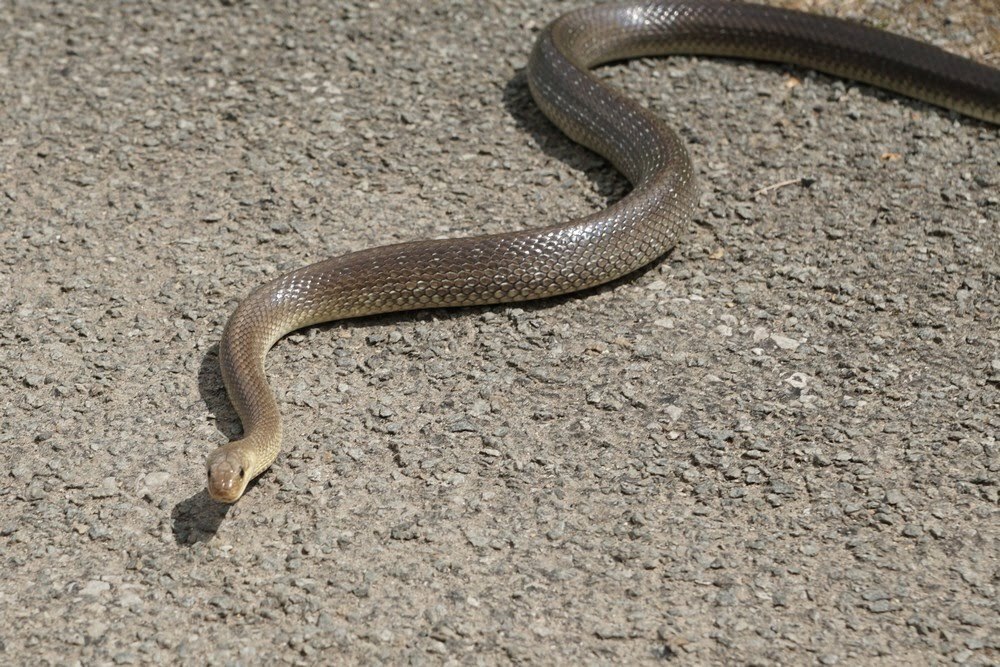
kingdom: Animalia
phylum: Chordata
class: Squamata
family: Colubridae
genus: Zamenis
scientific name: Zamenis longissimus
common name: Aesculapean snake
